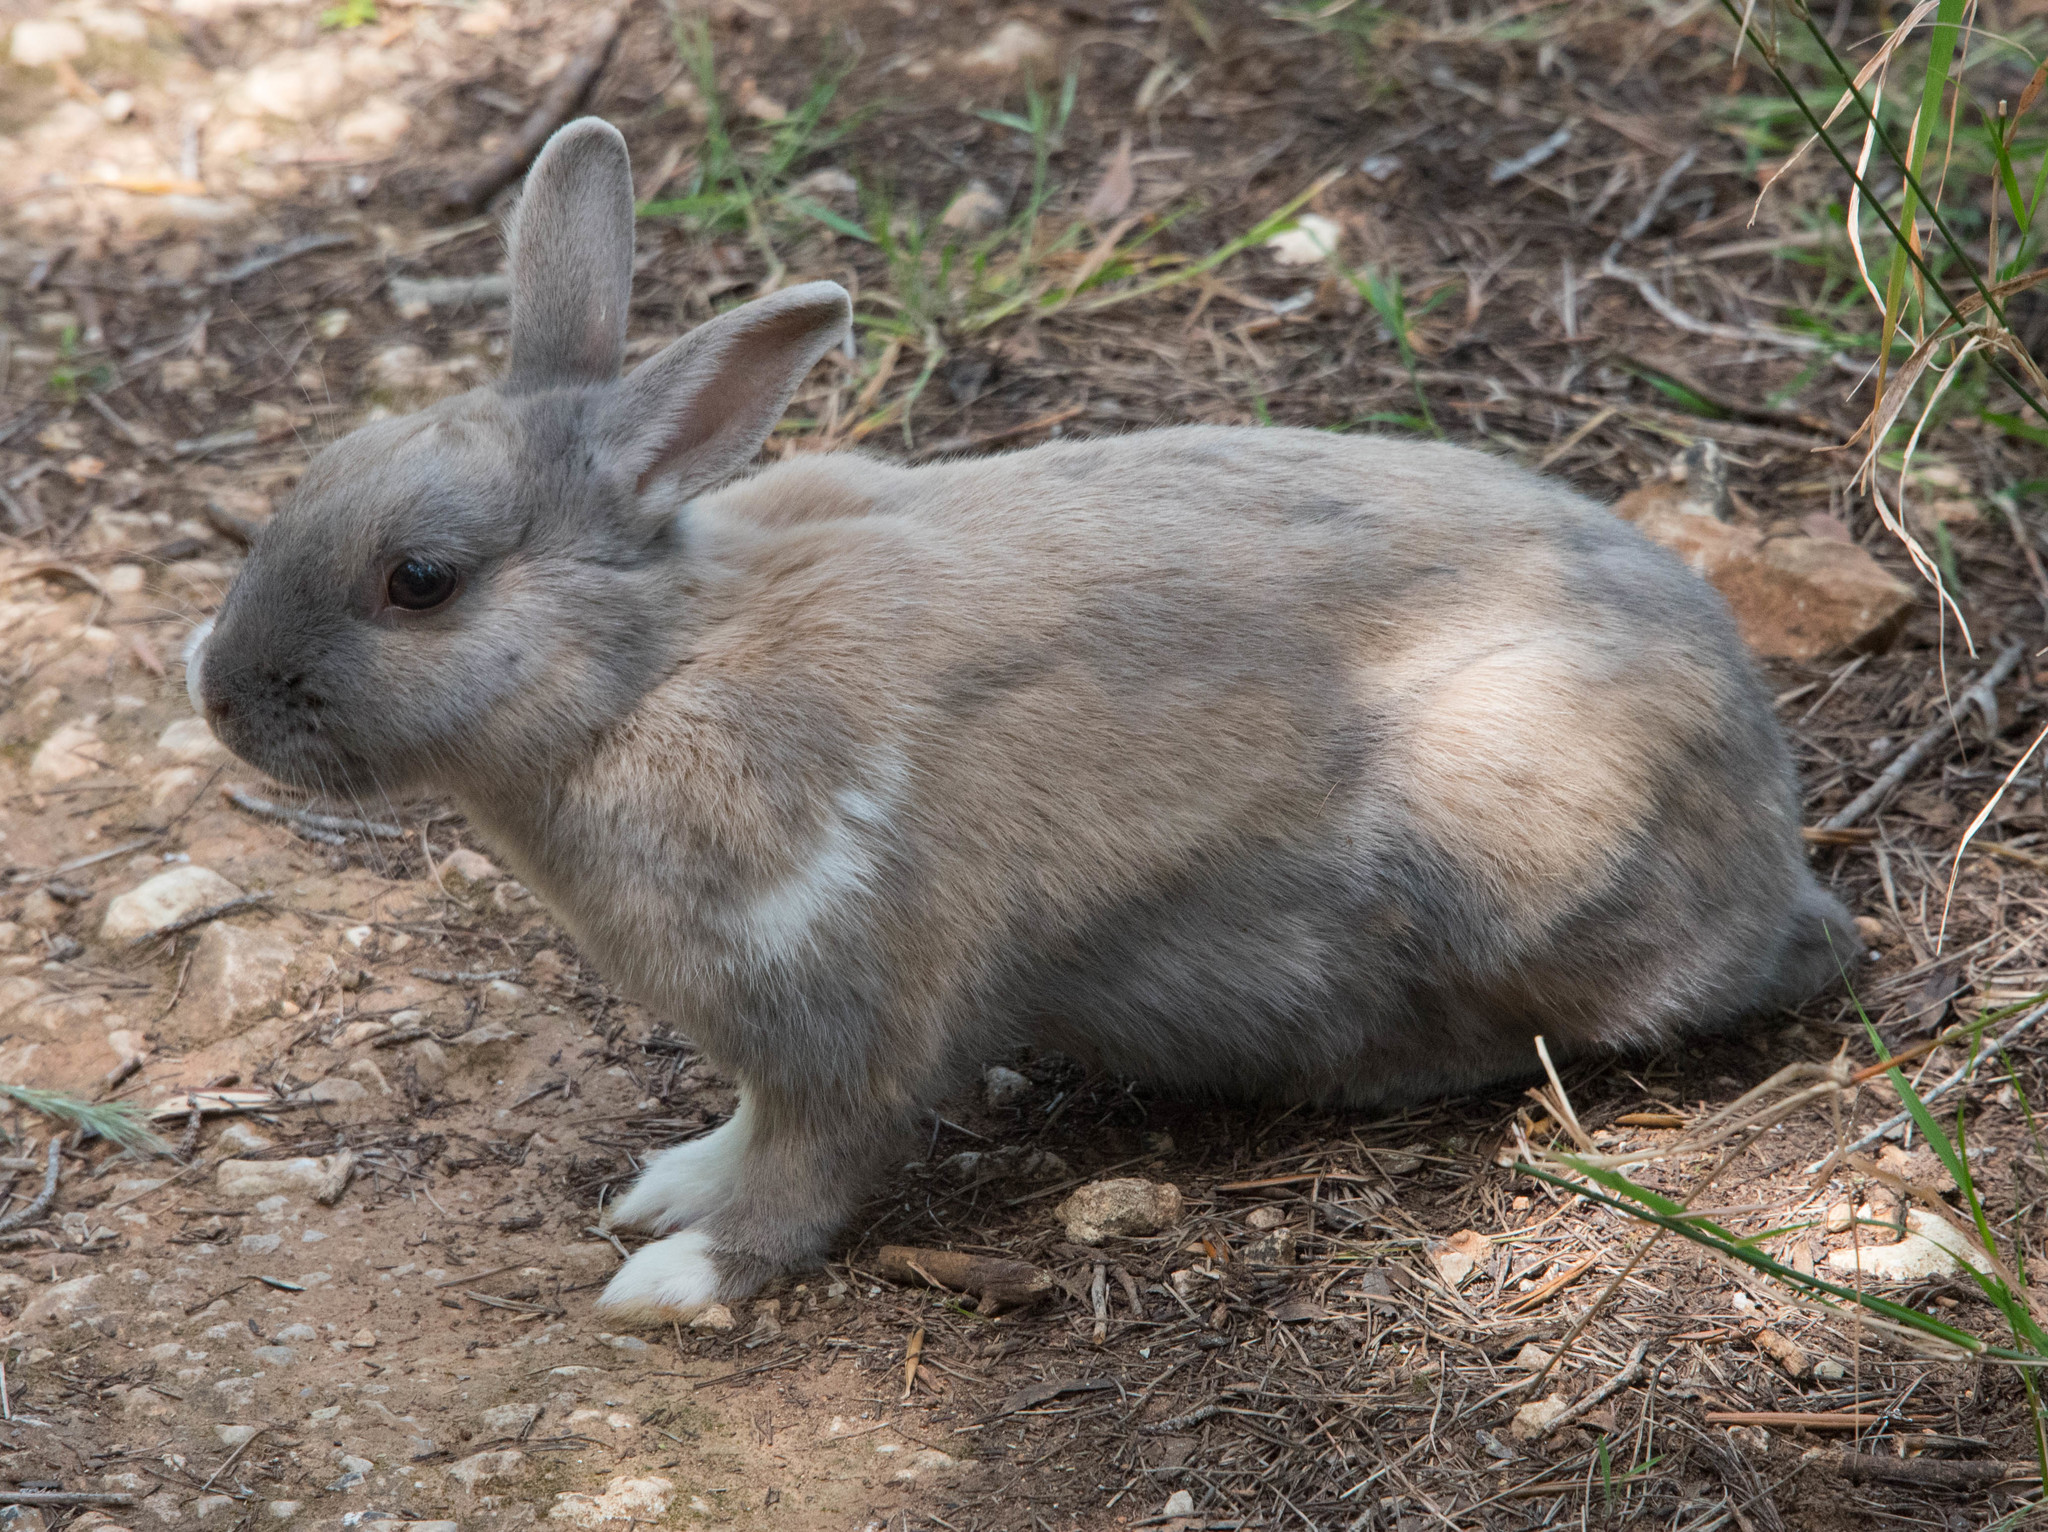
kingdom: Animalia
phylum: Chordata
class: Mammalia
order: Lagomorpha
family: Leporidae
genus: Oryctolagus
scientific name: Oryctolagus cuniculus
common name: European rabbit
